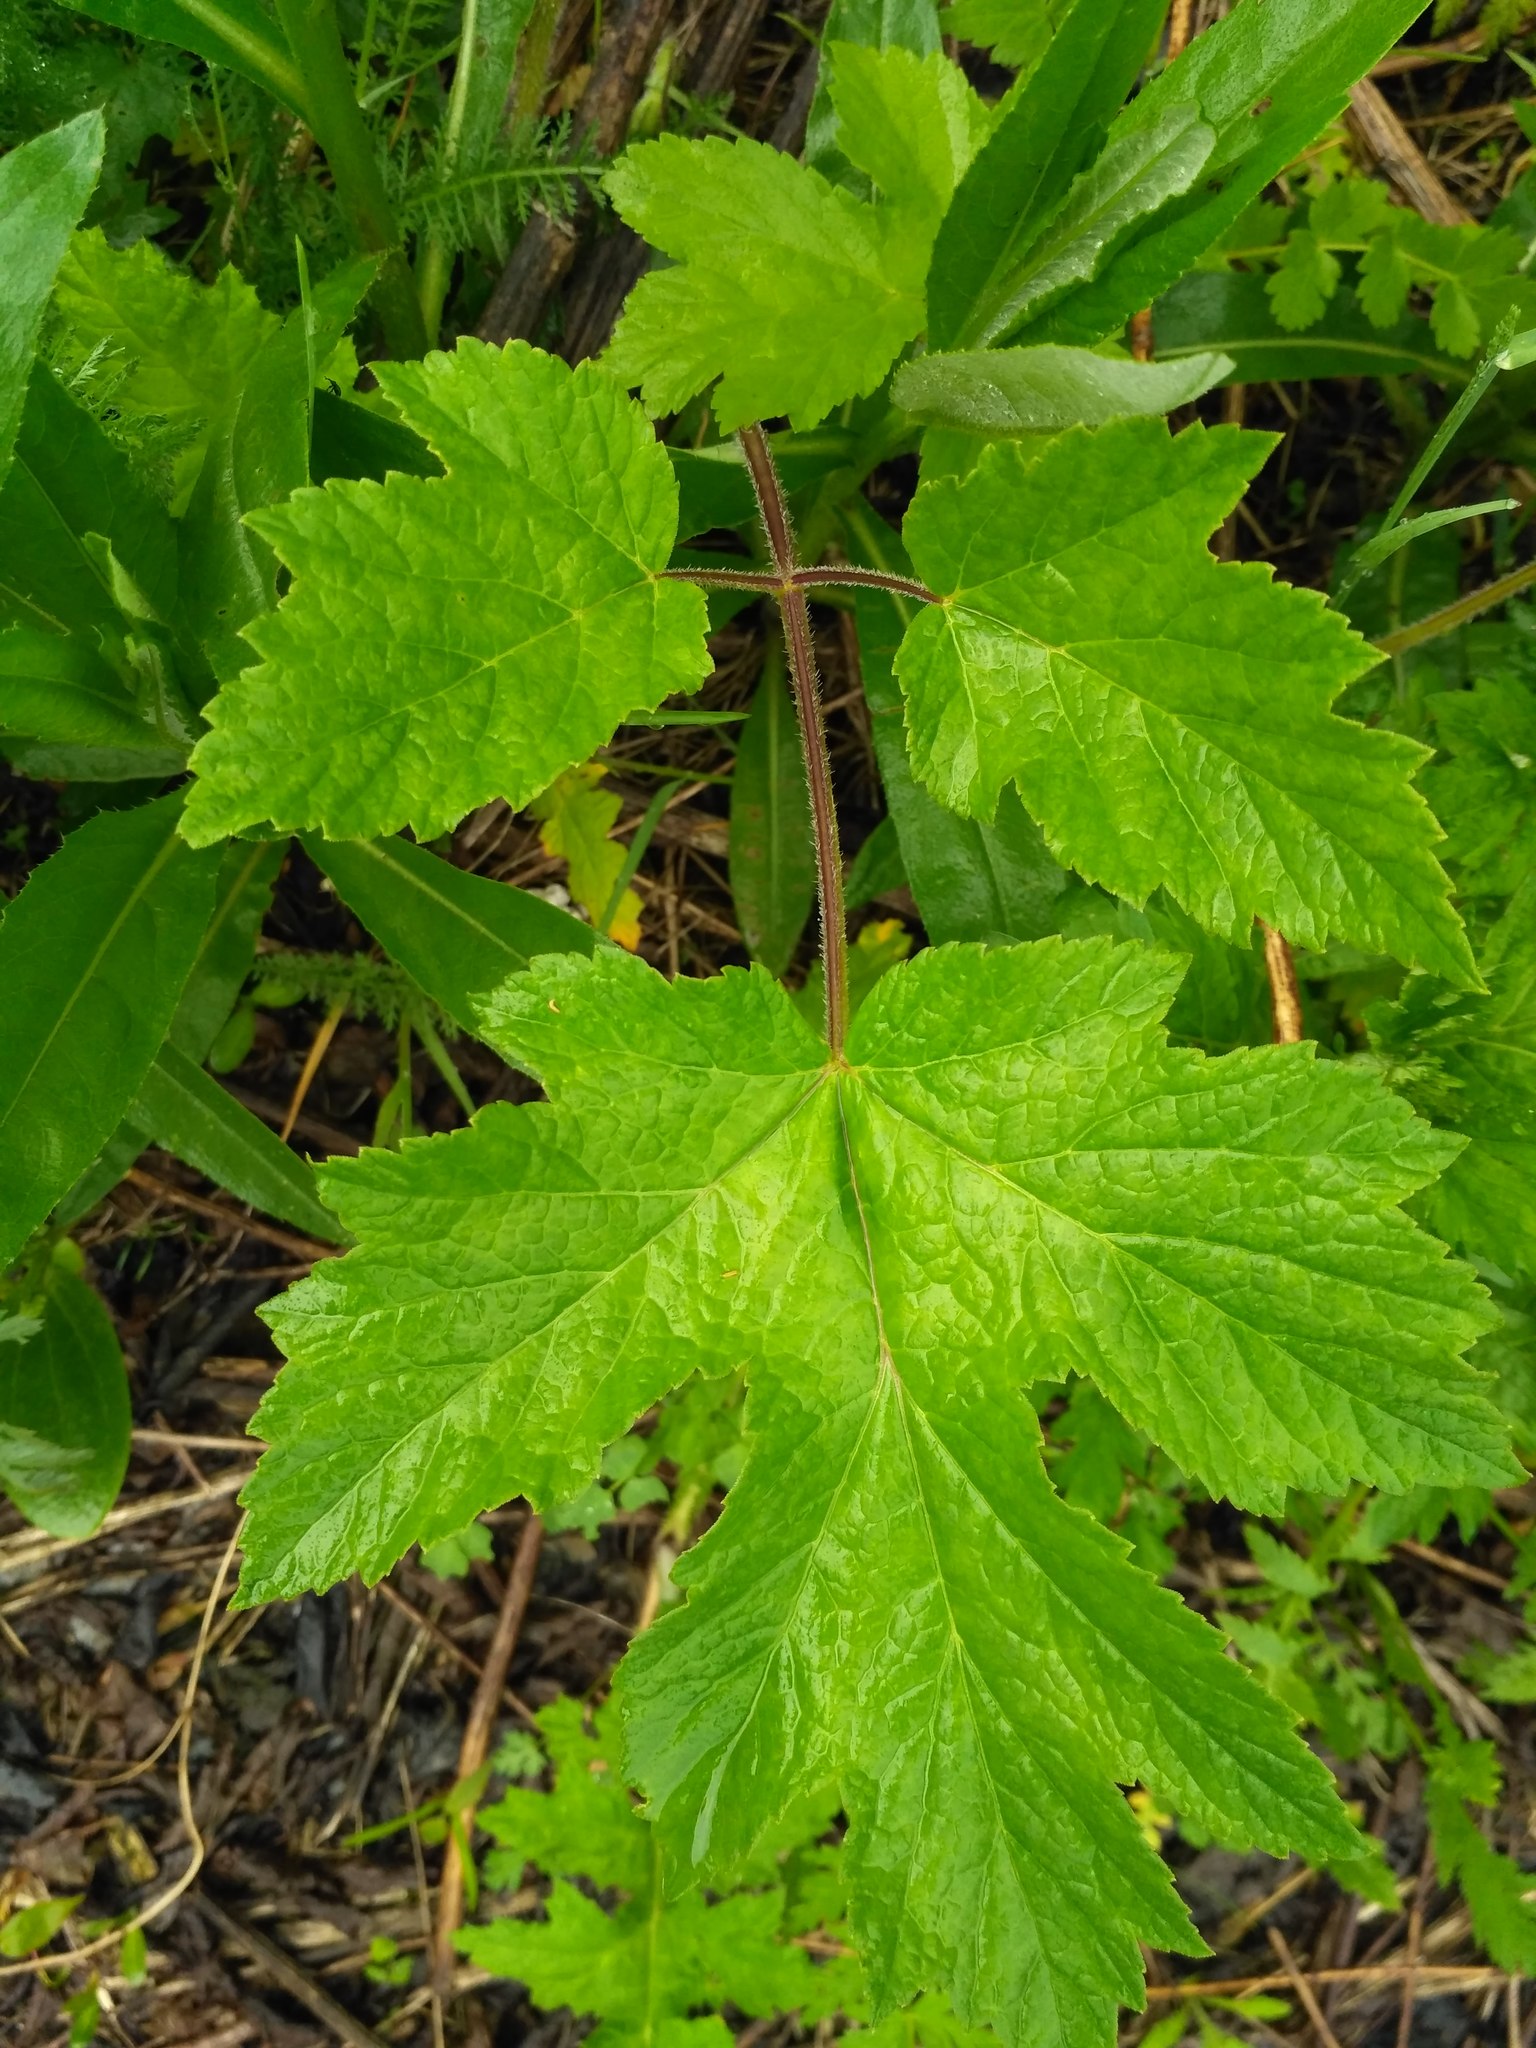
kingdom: Plantae
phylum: Tracheophyta
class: Magnoliopsida
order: Apiales
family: Apiaceae
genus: Heracleum
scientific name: Heracleum sphondylium
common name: Hogweed
